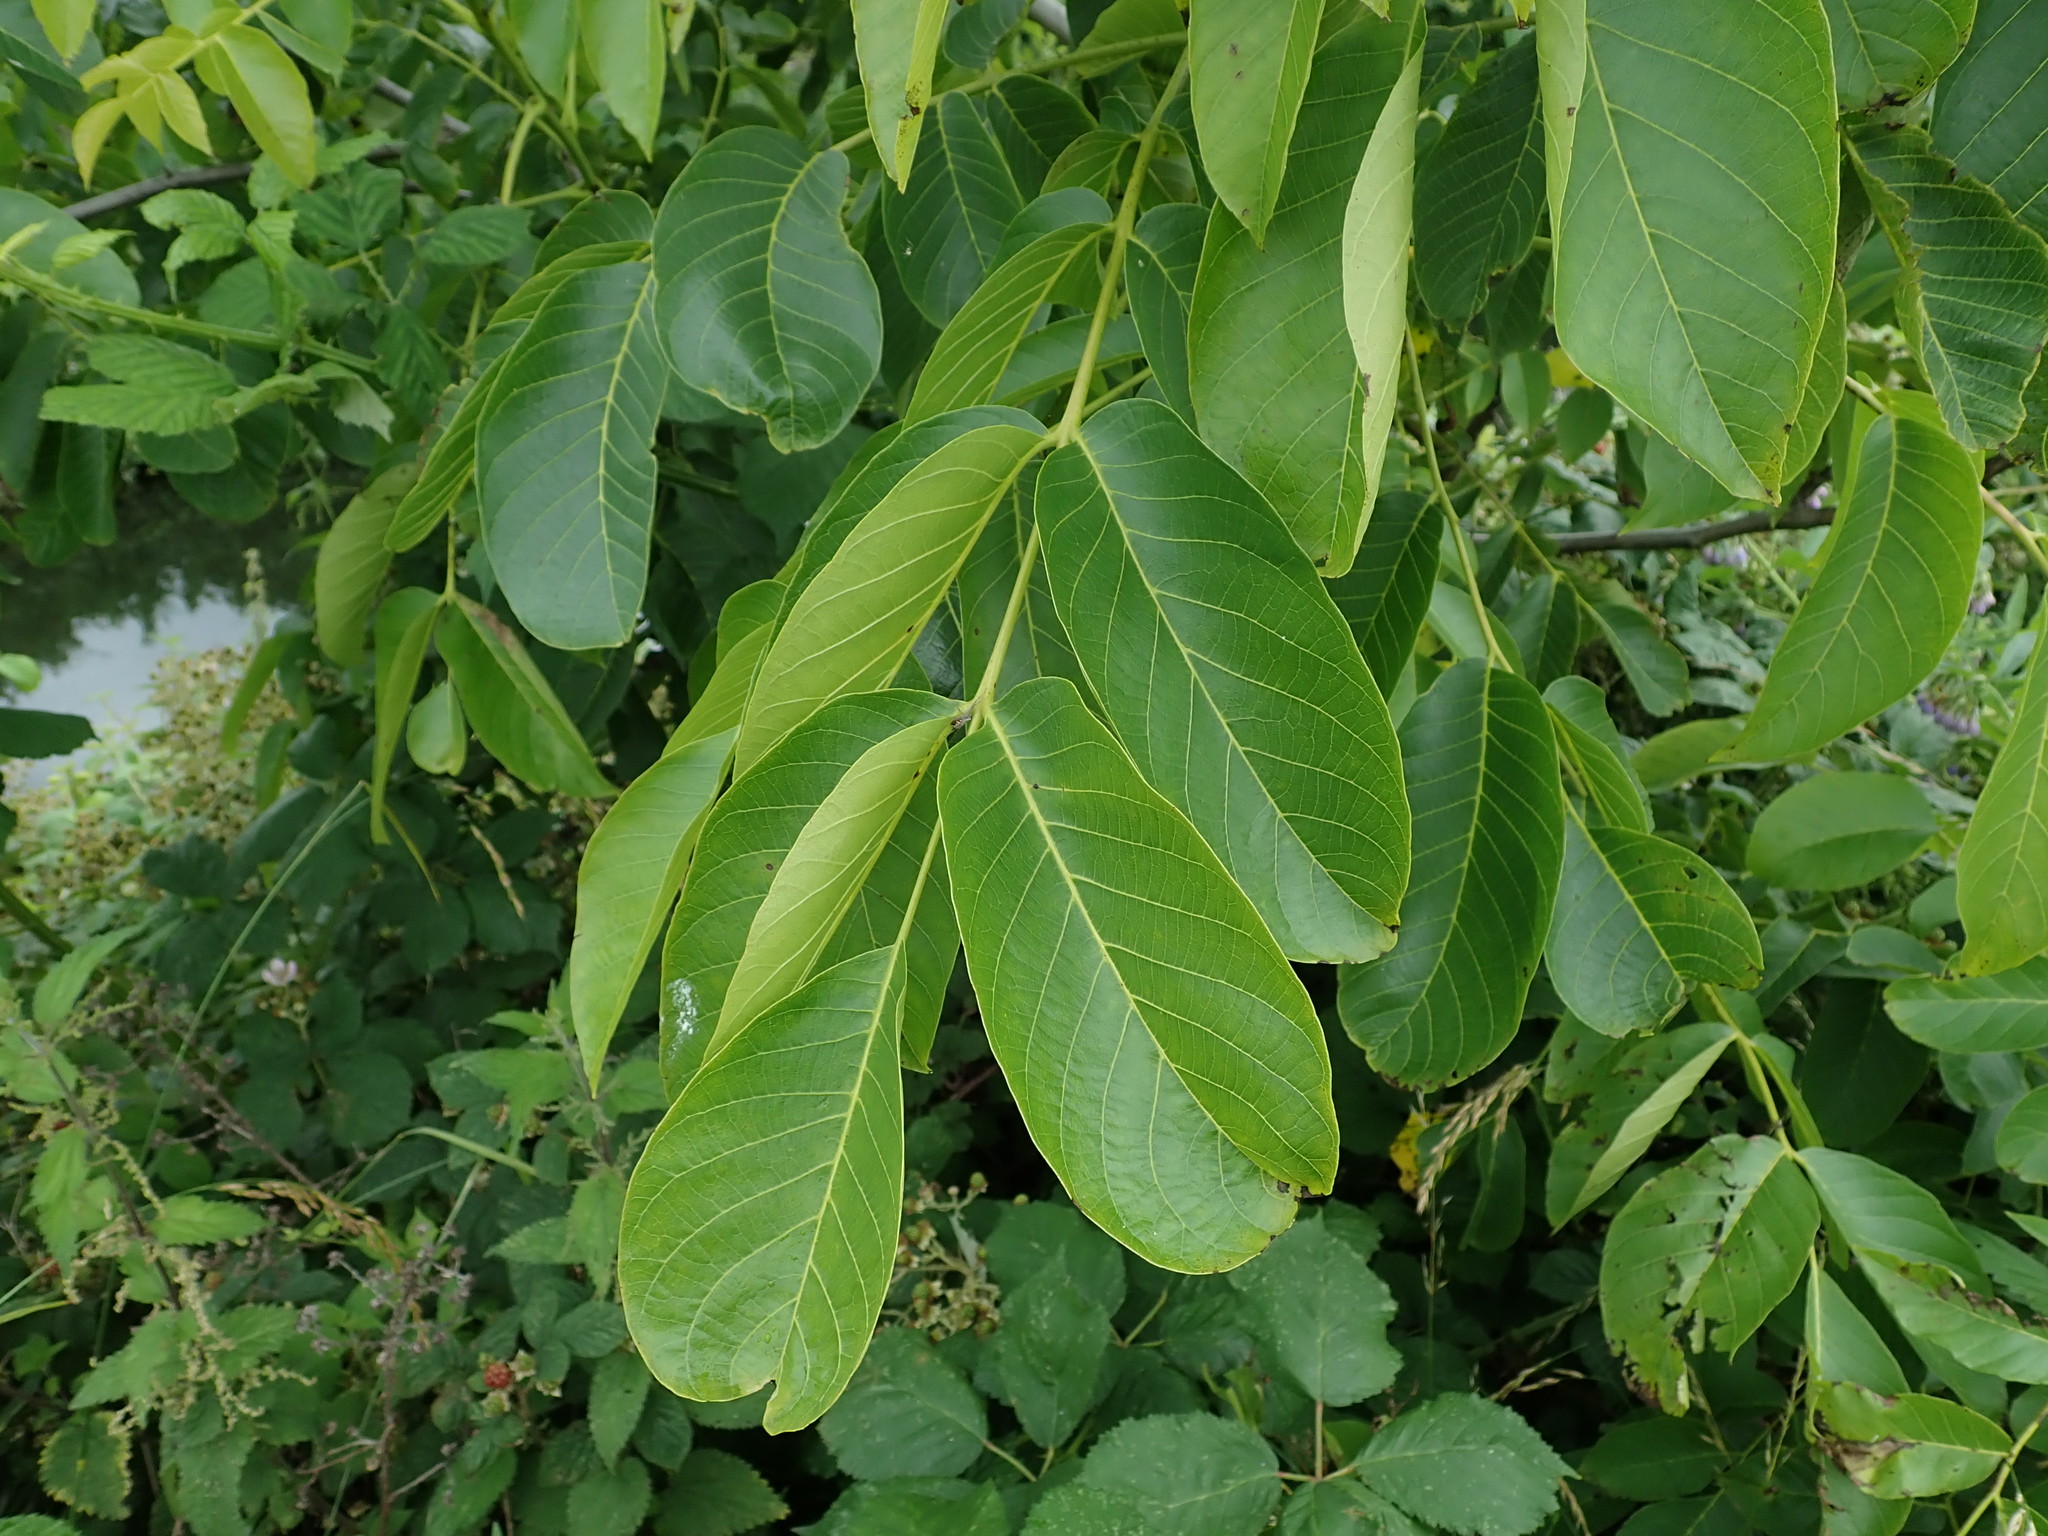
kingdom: Plantae
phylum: Tracheophyta
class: Magnoliopsida
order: Fagales
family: Juglandaceae
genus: Juglans
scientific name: Juglans regia
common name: Walnut
